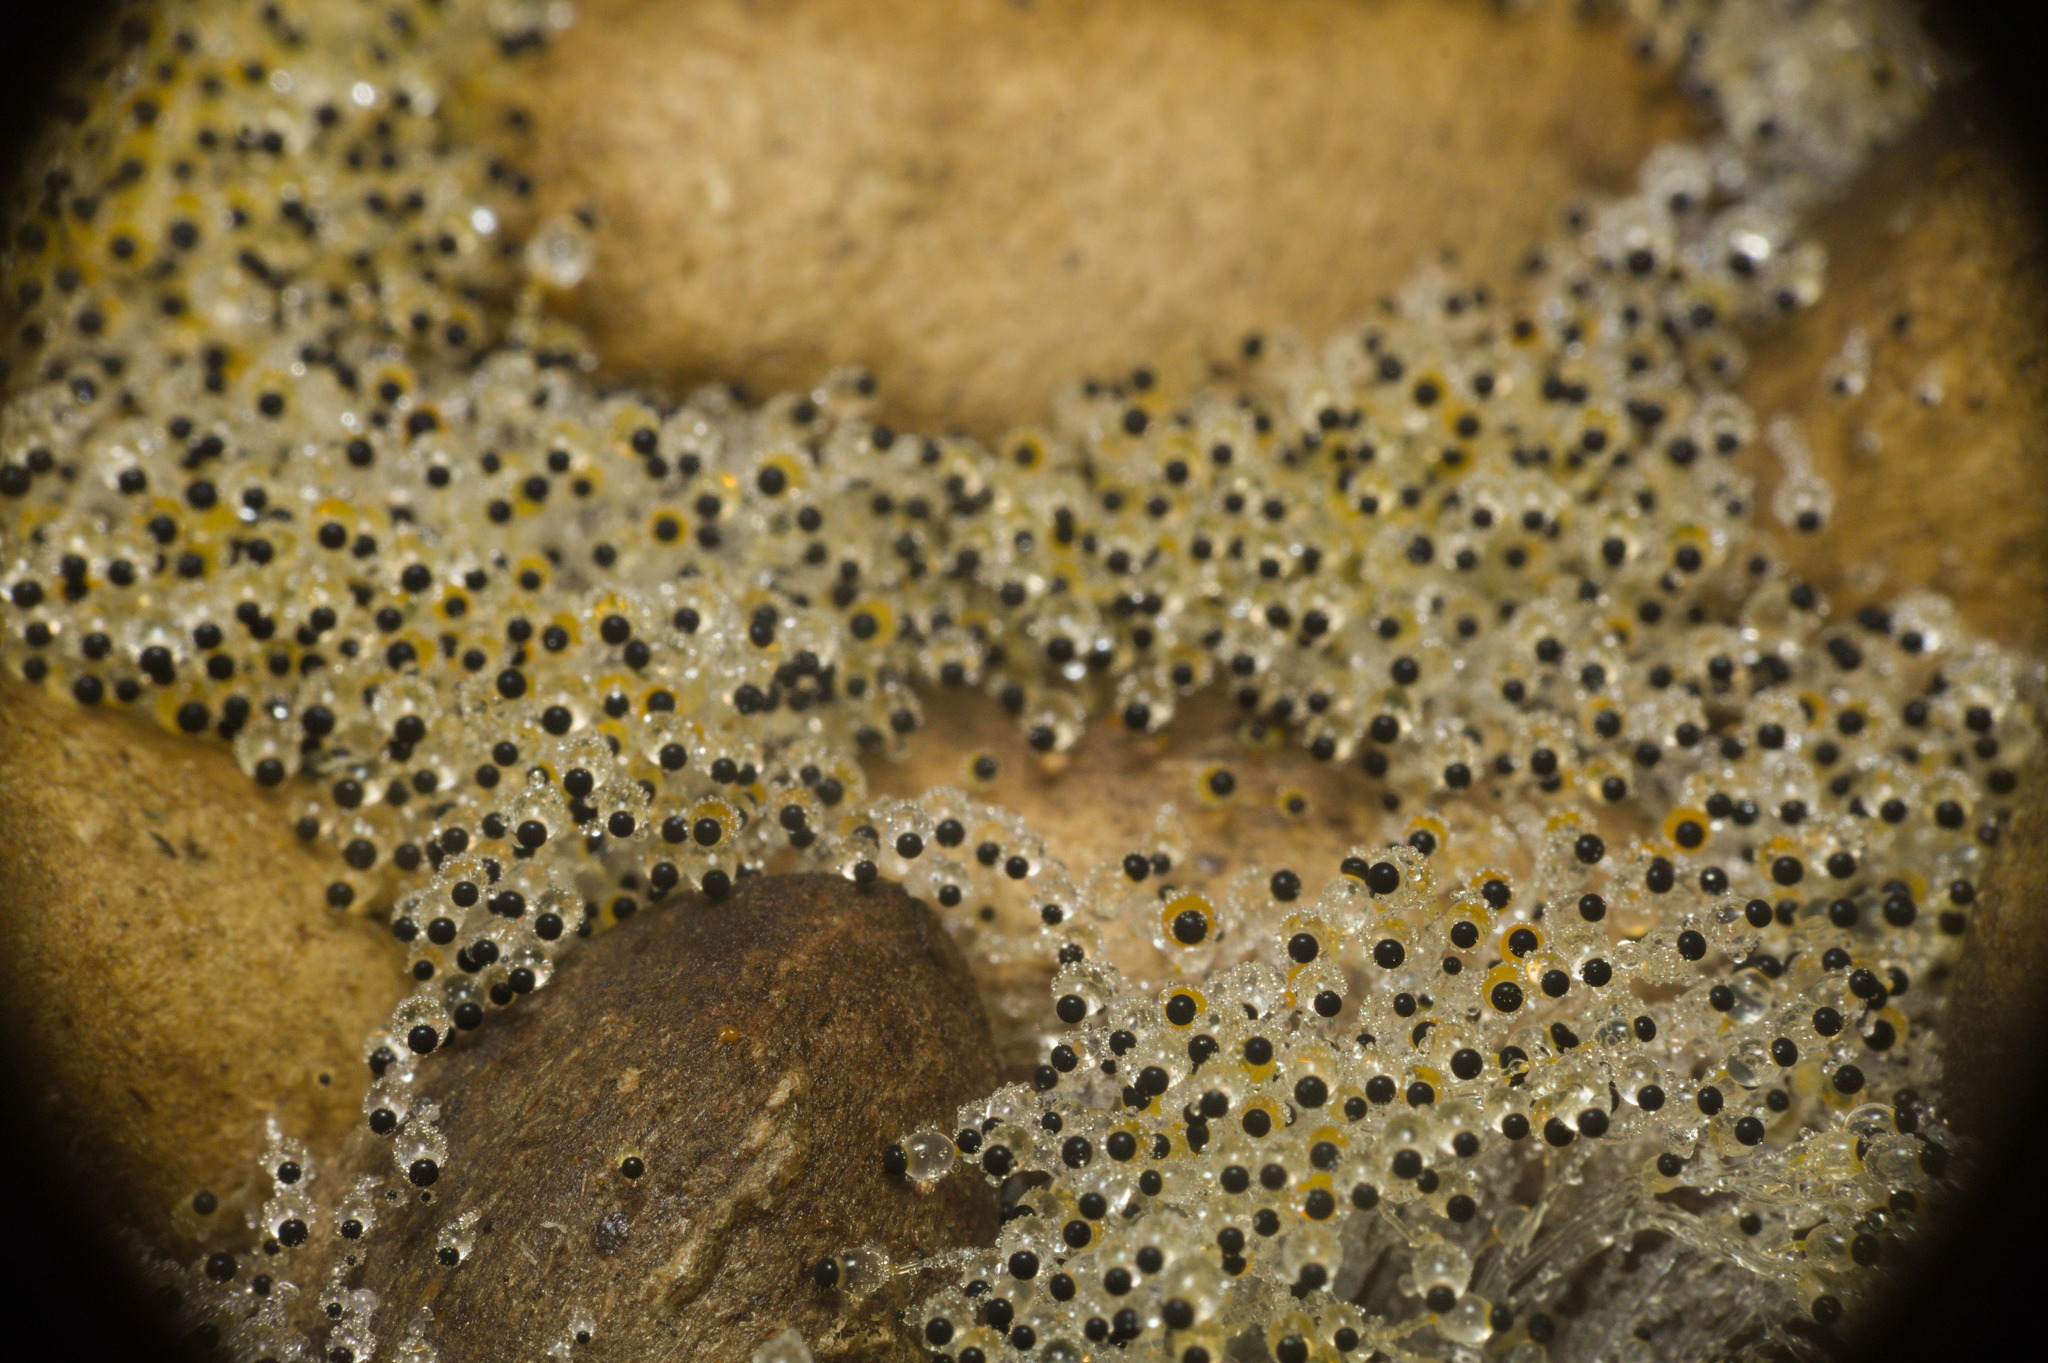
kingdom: Fungi
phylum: Mucoromycota
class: Mucoromycetes
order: Mucorales
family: Pilobolaceae
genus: Pilobolus
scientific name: Pilobolus
